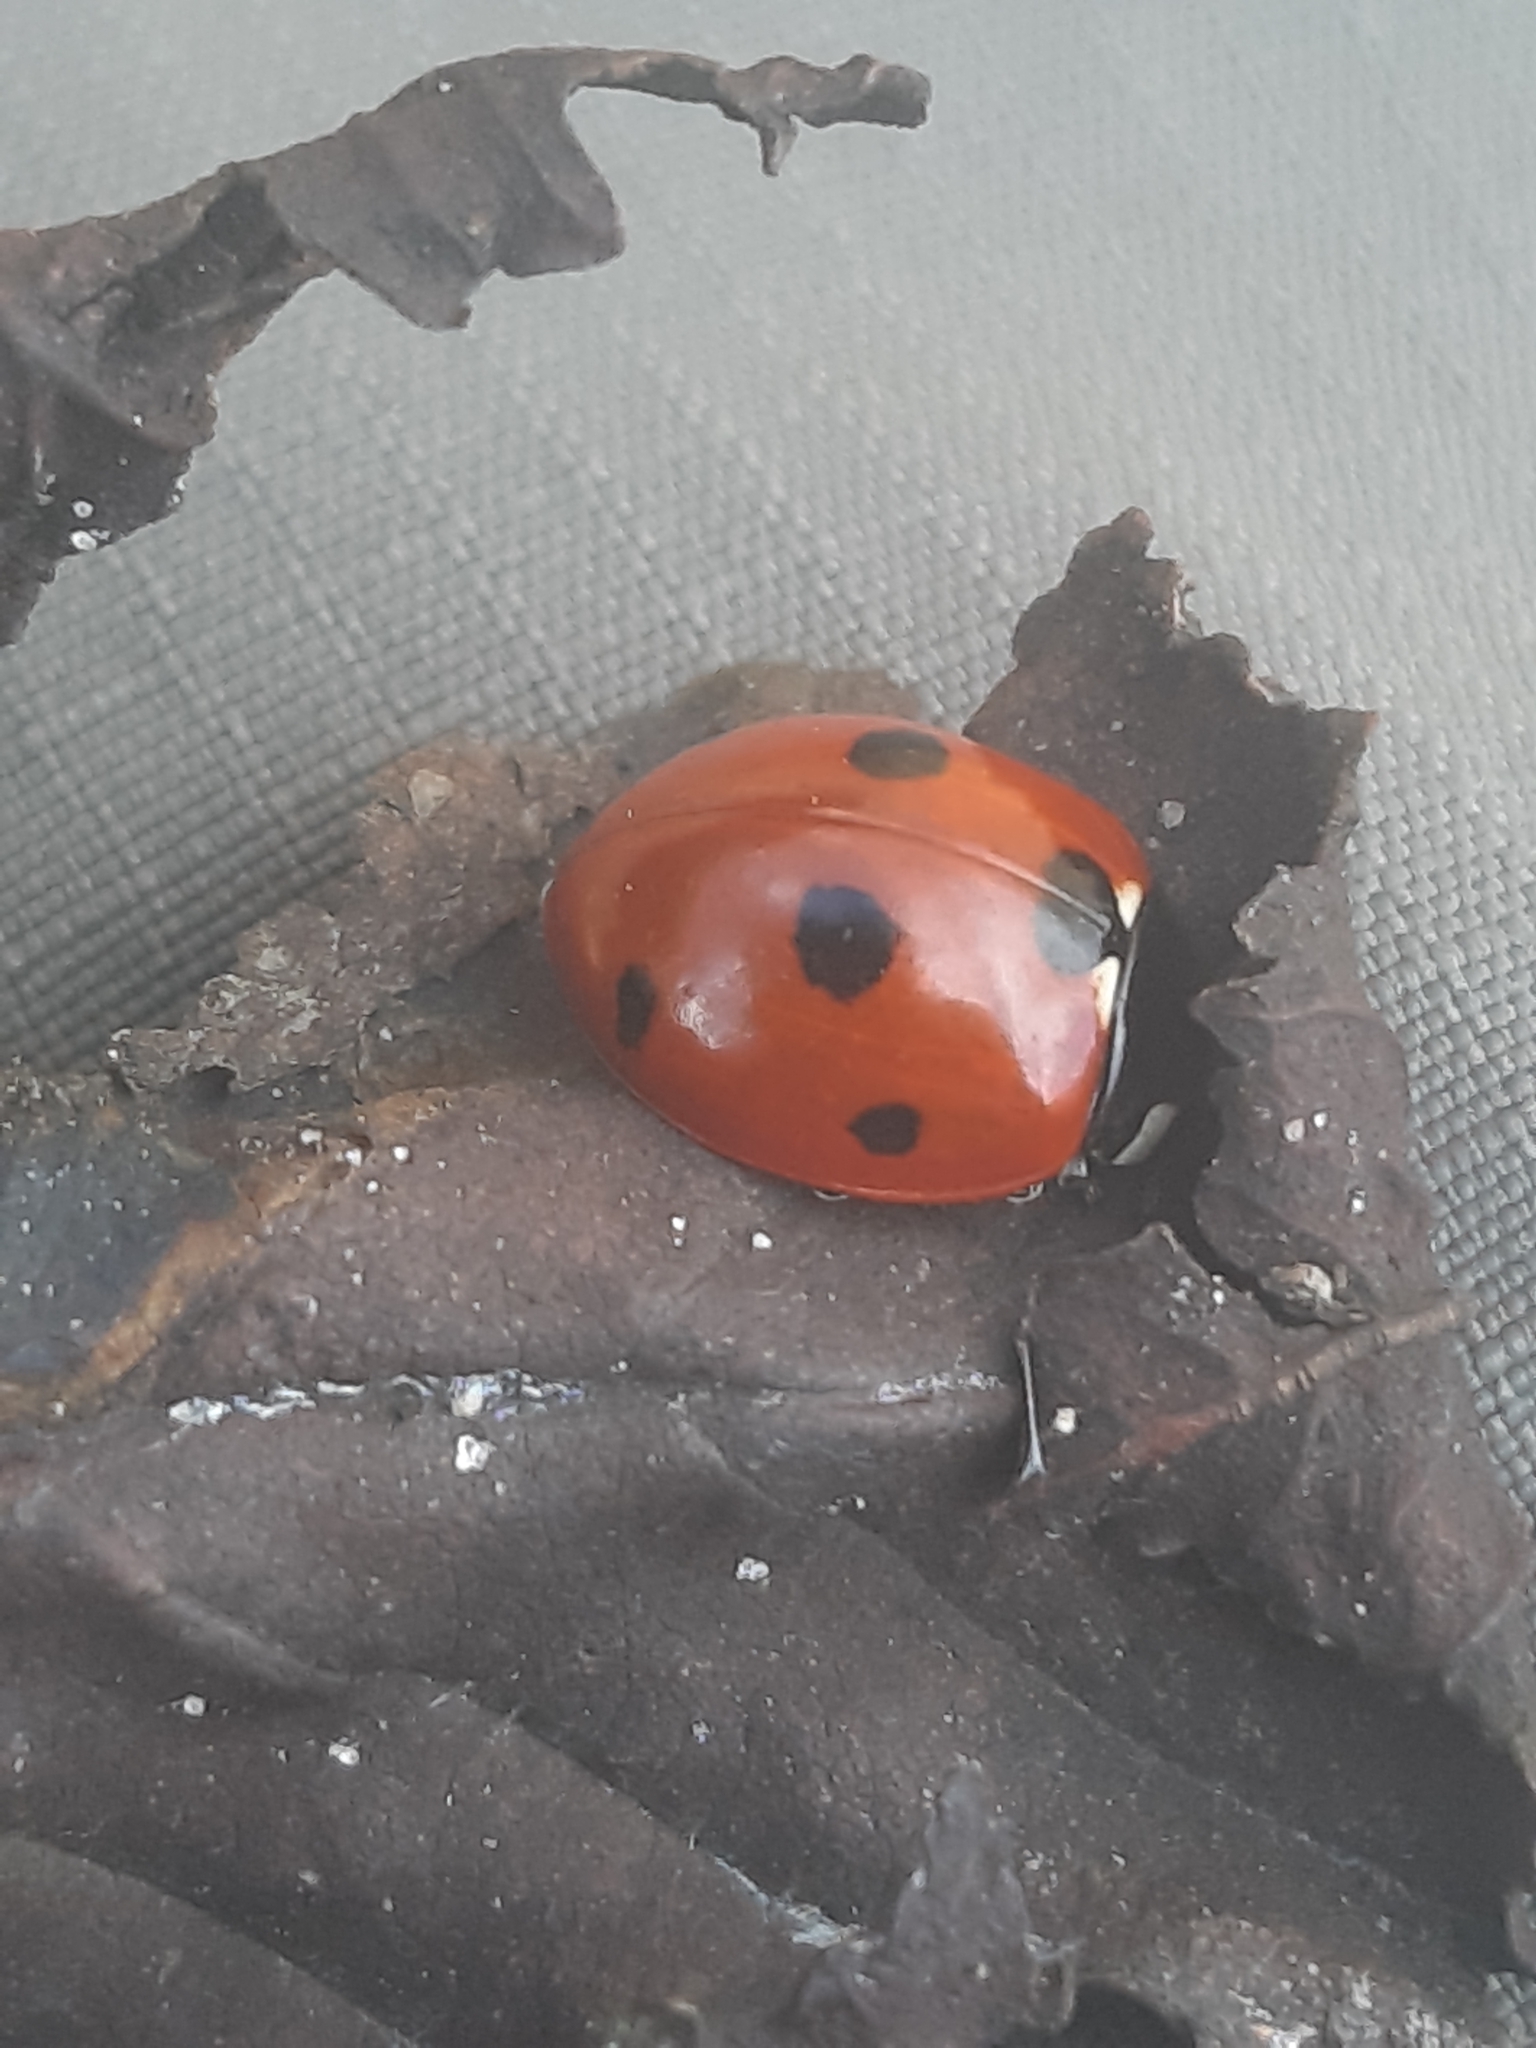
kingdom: Animalia
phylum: Arthropoda
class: Insecta
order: Coleoptera
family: Coccinellidae
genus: Coccinella
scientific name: Coccinella septempunctata
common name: Sevenspotted lady beetle
